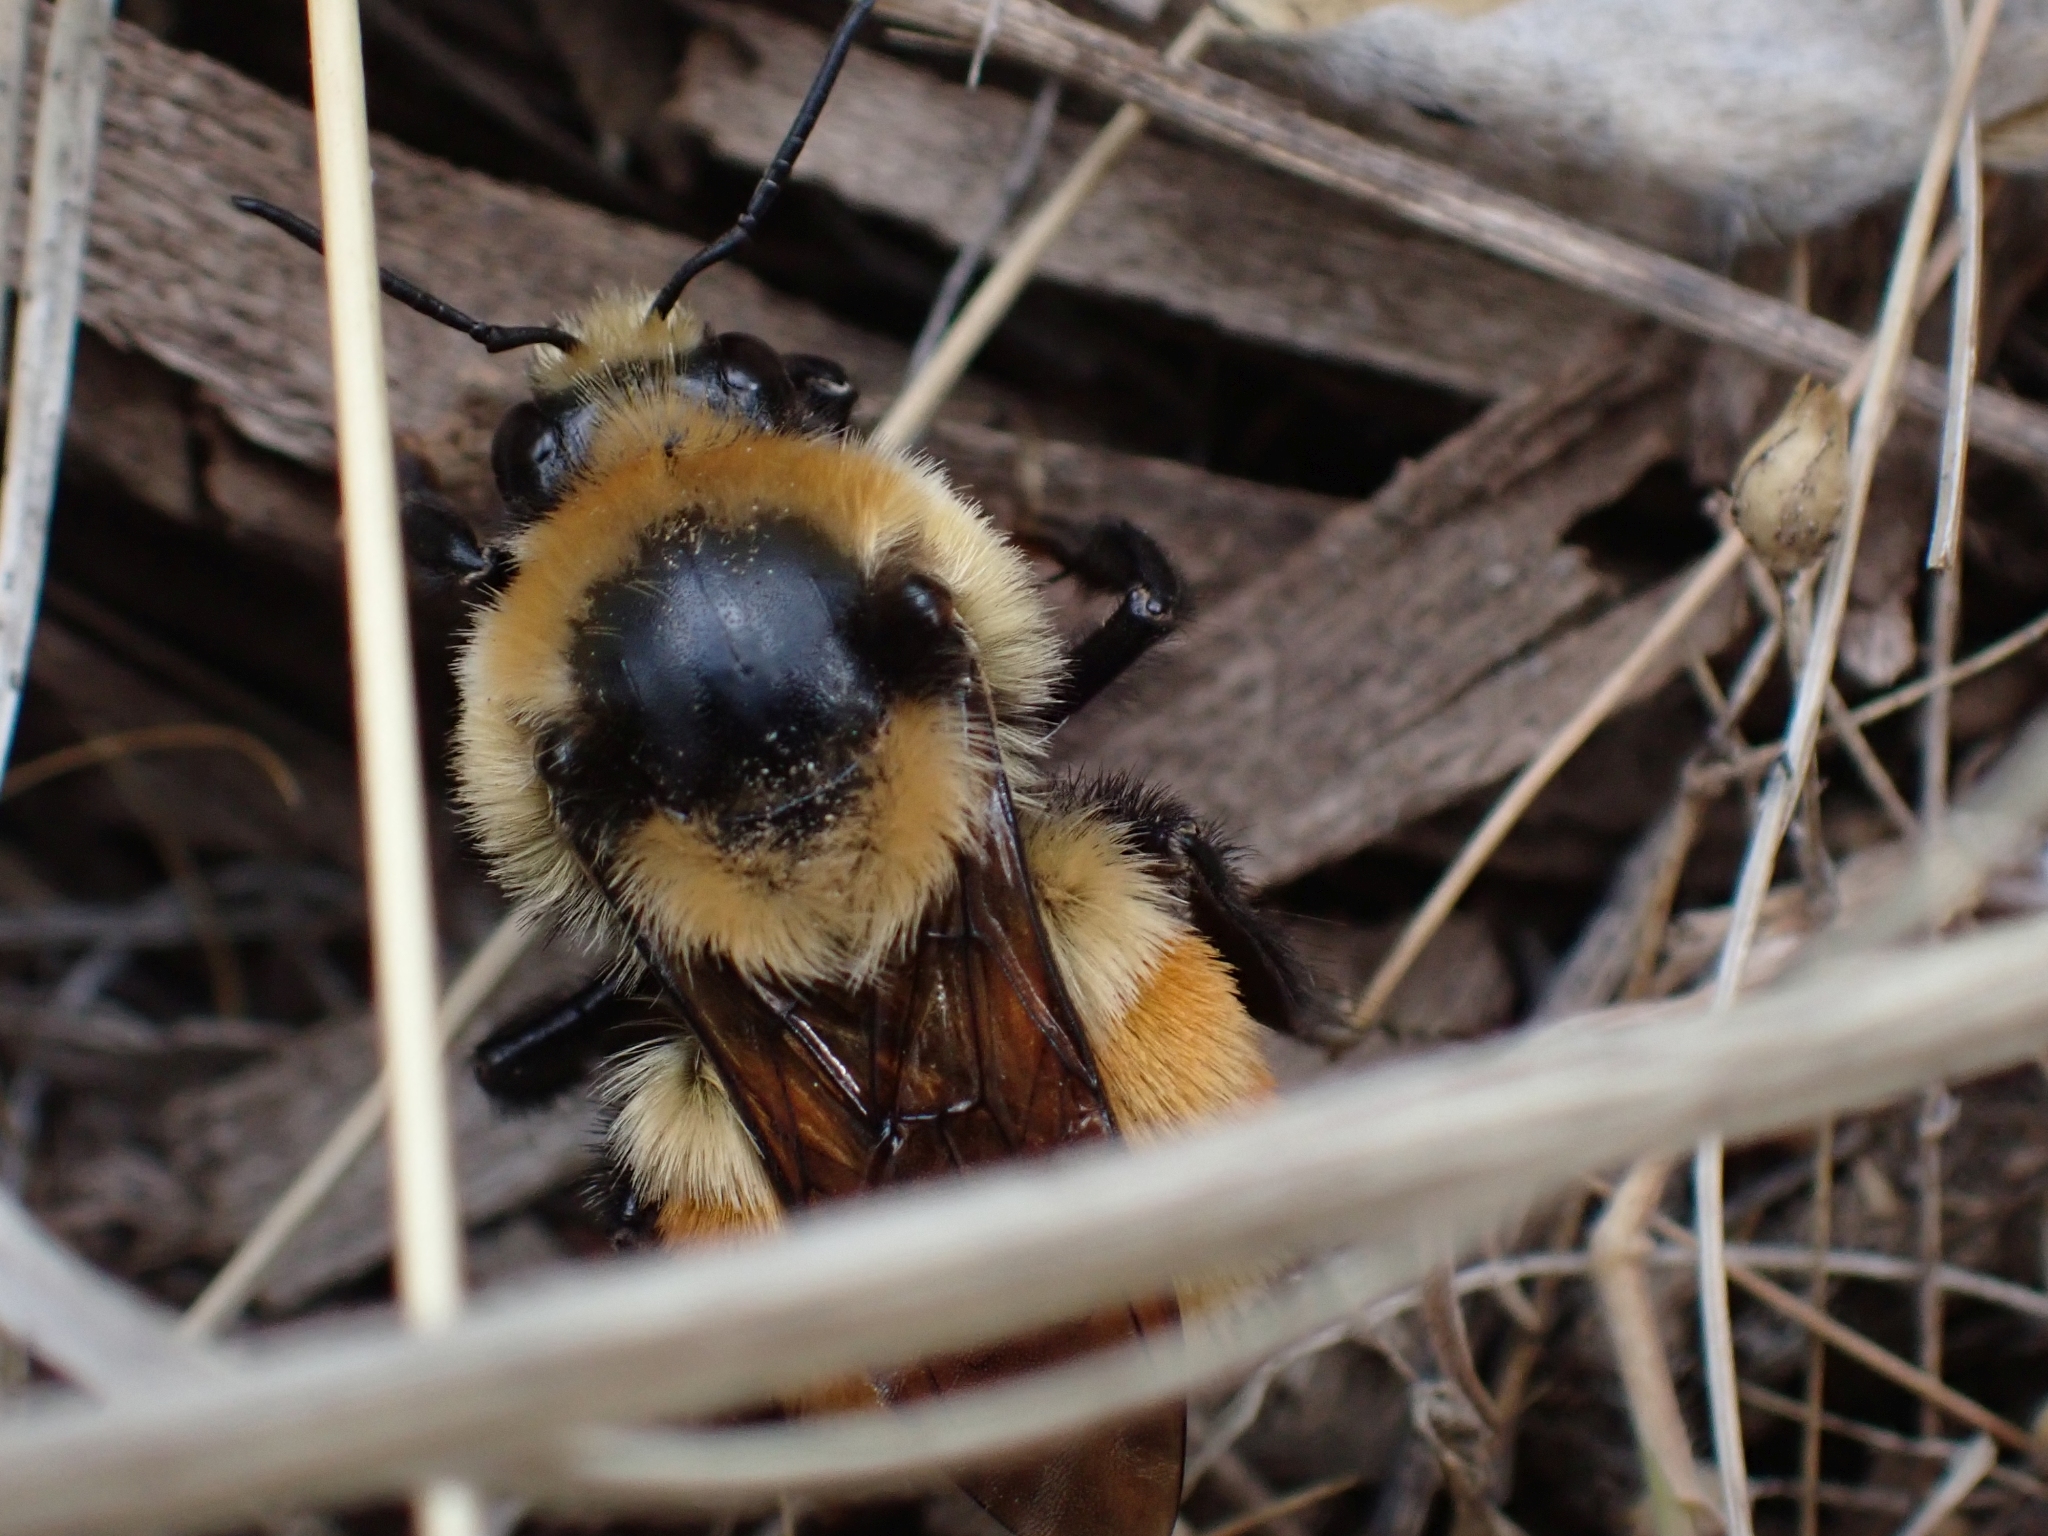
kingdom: Animalia
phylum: Arthropoda
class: Insecta
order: Hymenoptera
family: Apidae
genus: Bombus
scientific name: Bombus huntii
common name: Hunt bumble bee
